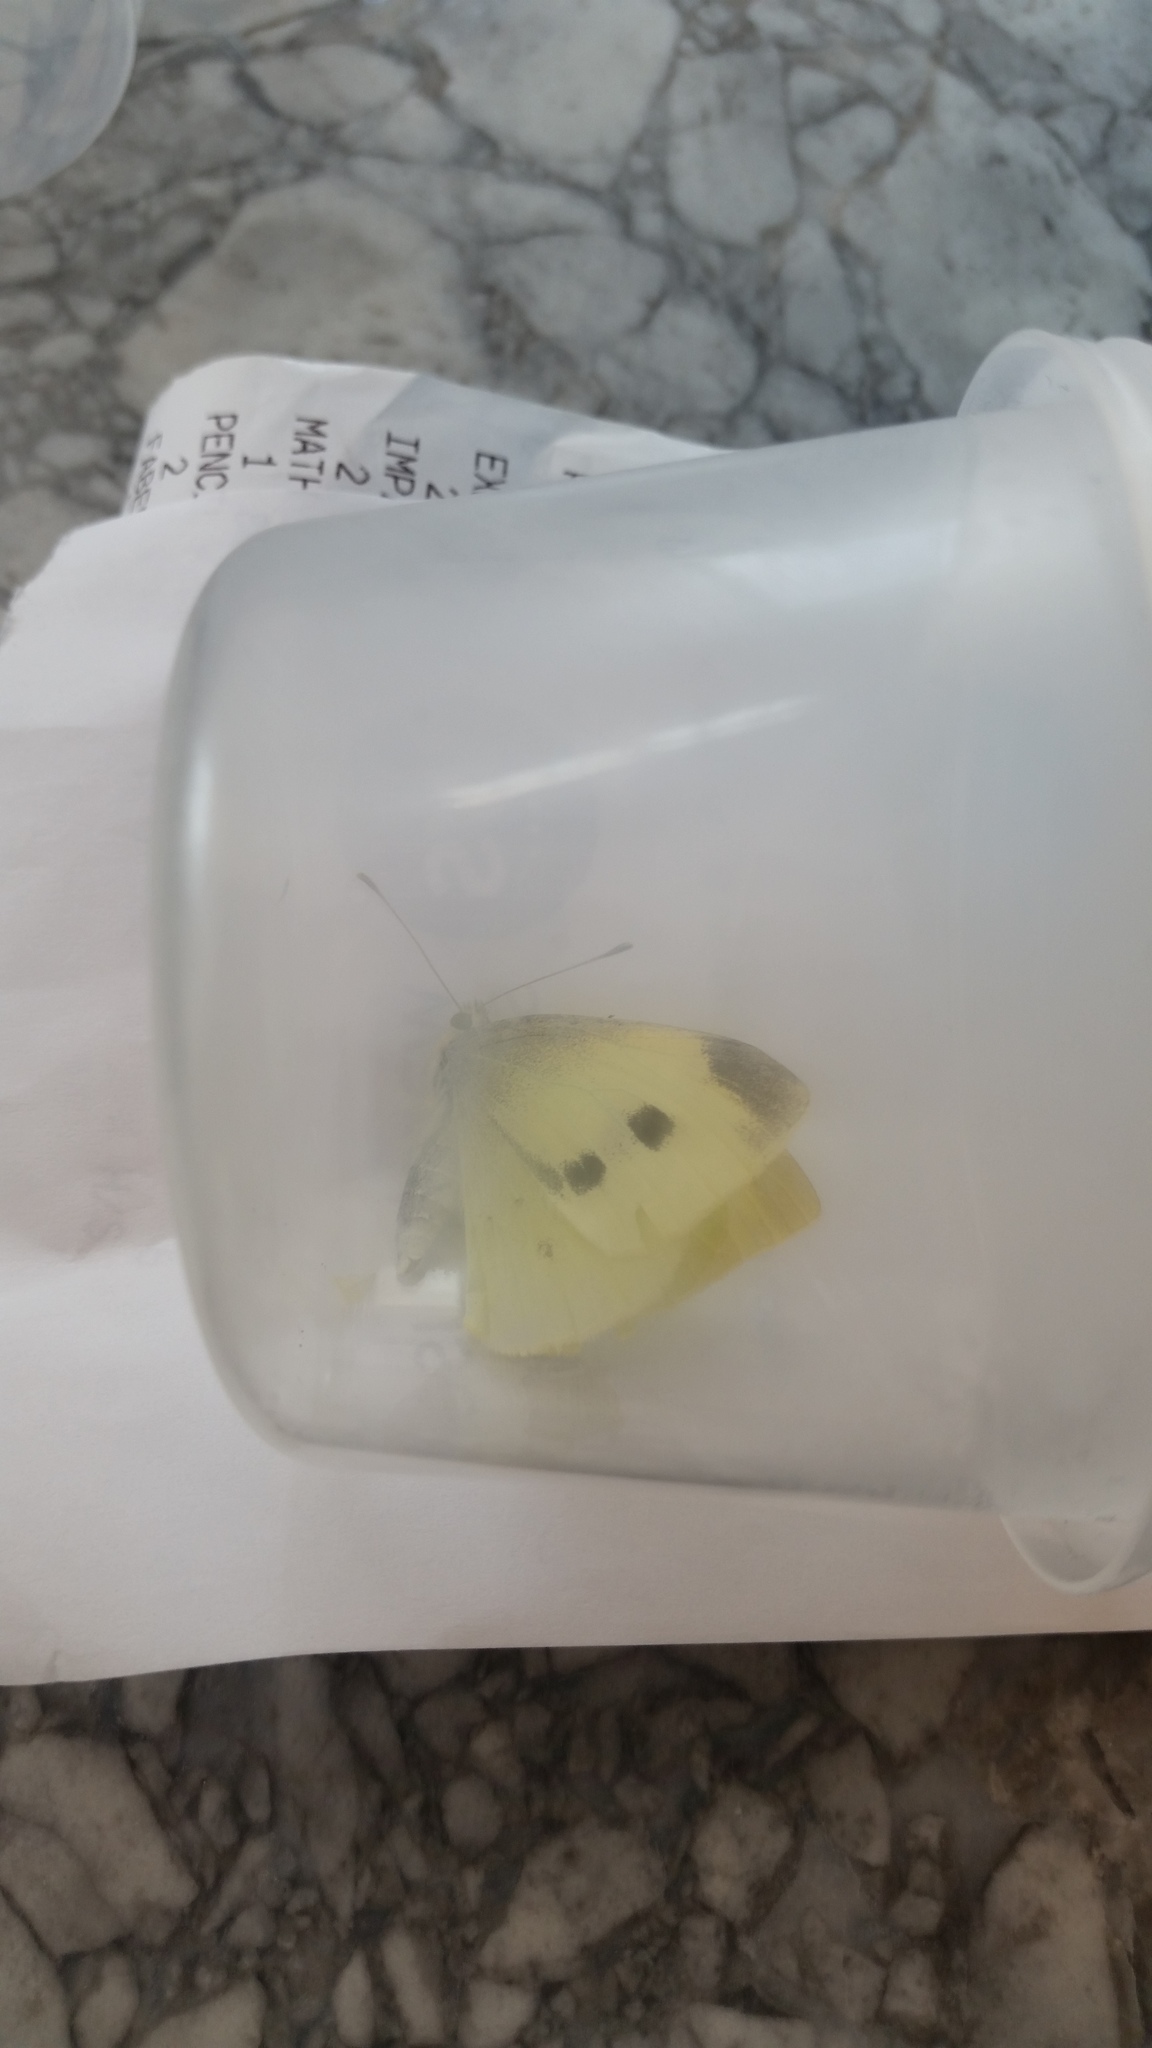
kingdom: Animalia
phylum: Arthropoda
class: Insecta
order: Lepidoptera
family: Pieridae
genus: Pieris
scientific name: Pieris rapae
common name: Small white
